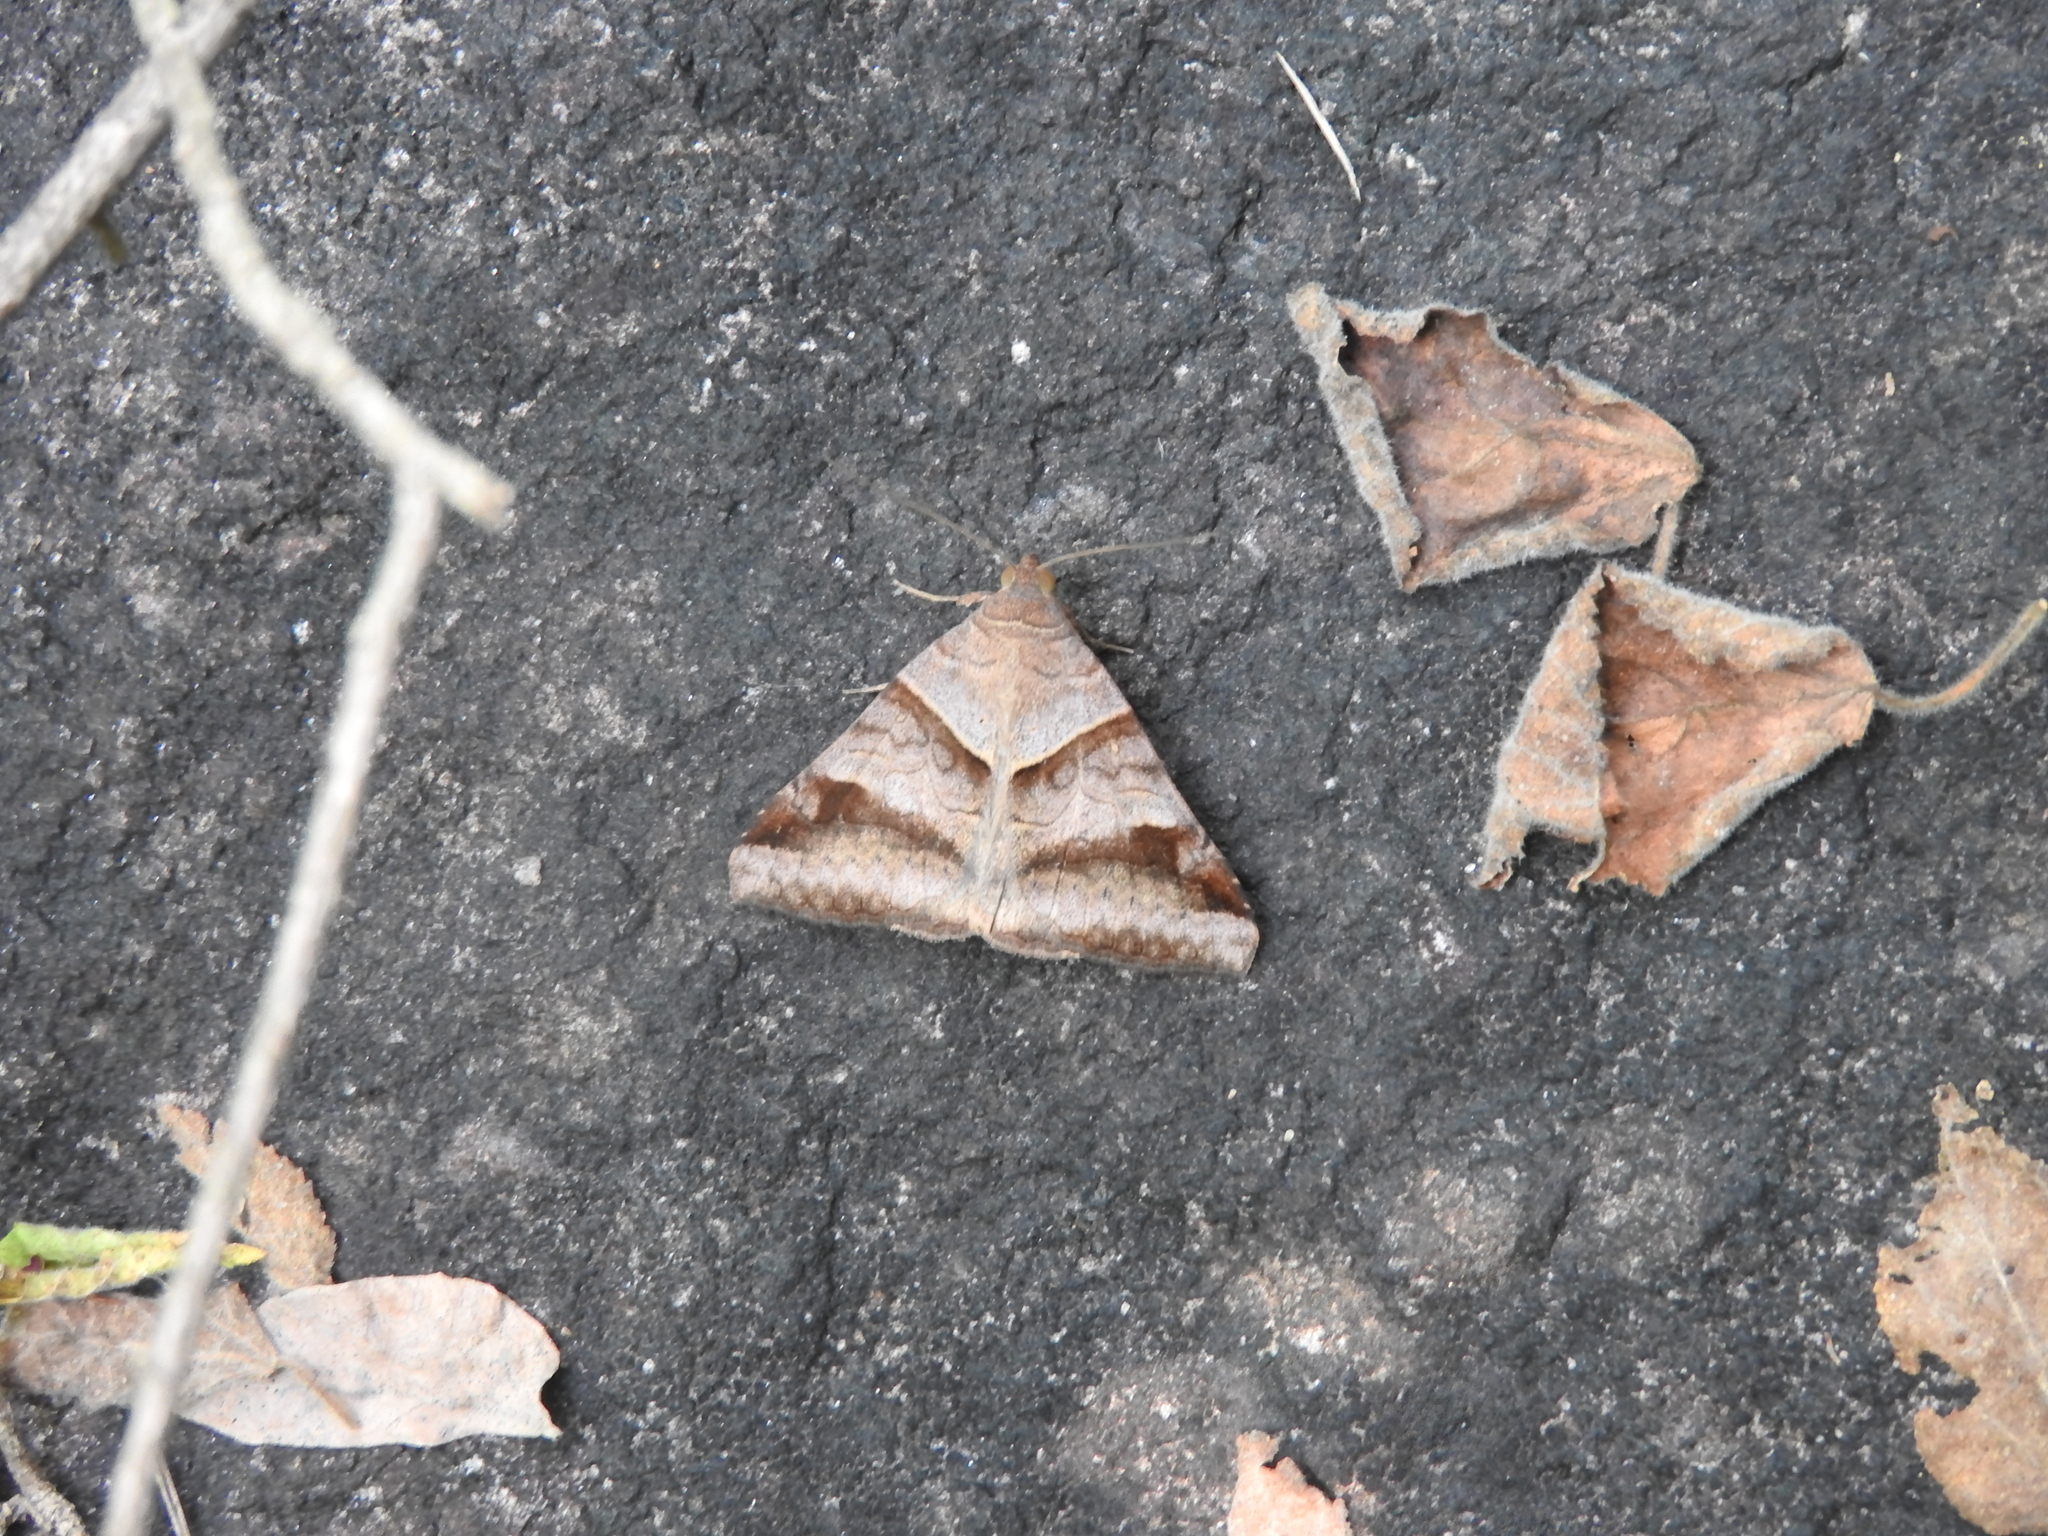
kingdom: Animalia
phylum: Arthropoda
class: Insecta
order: Lepidoptera
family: Erebidae
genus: Mocis
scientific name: Mocis undata
